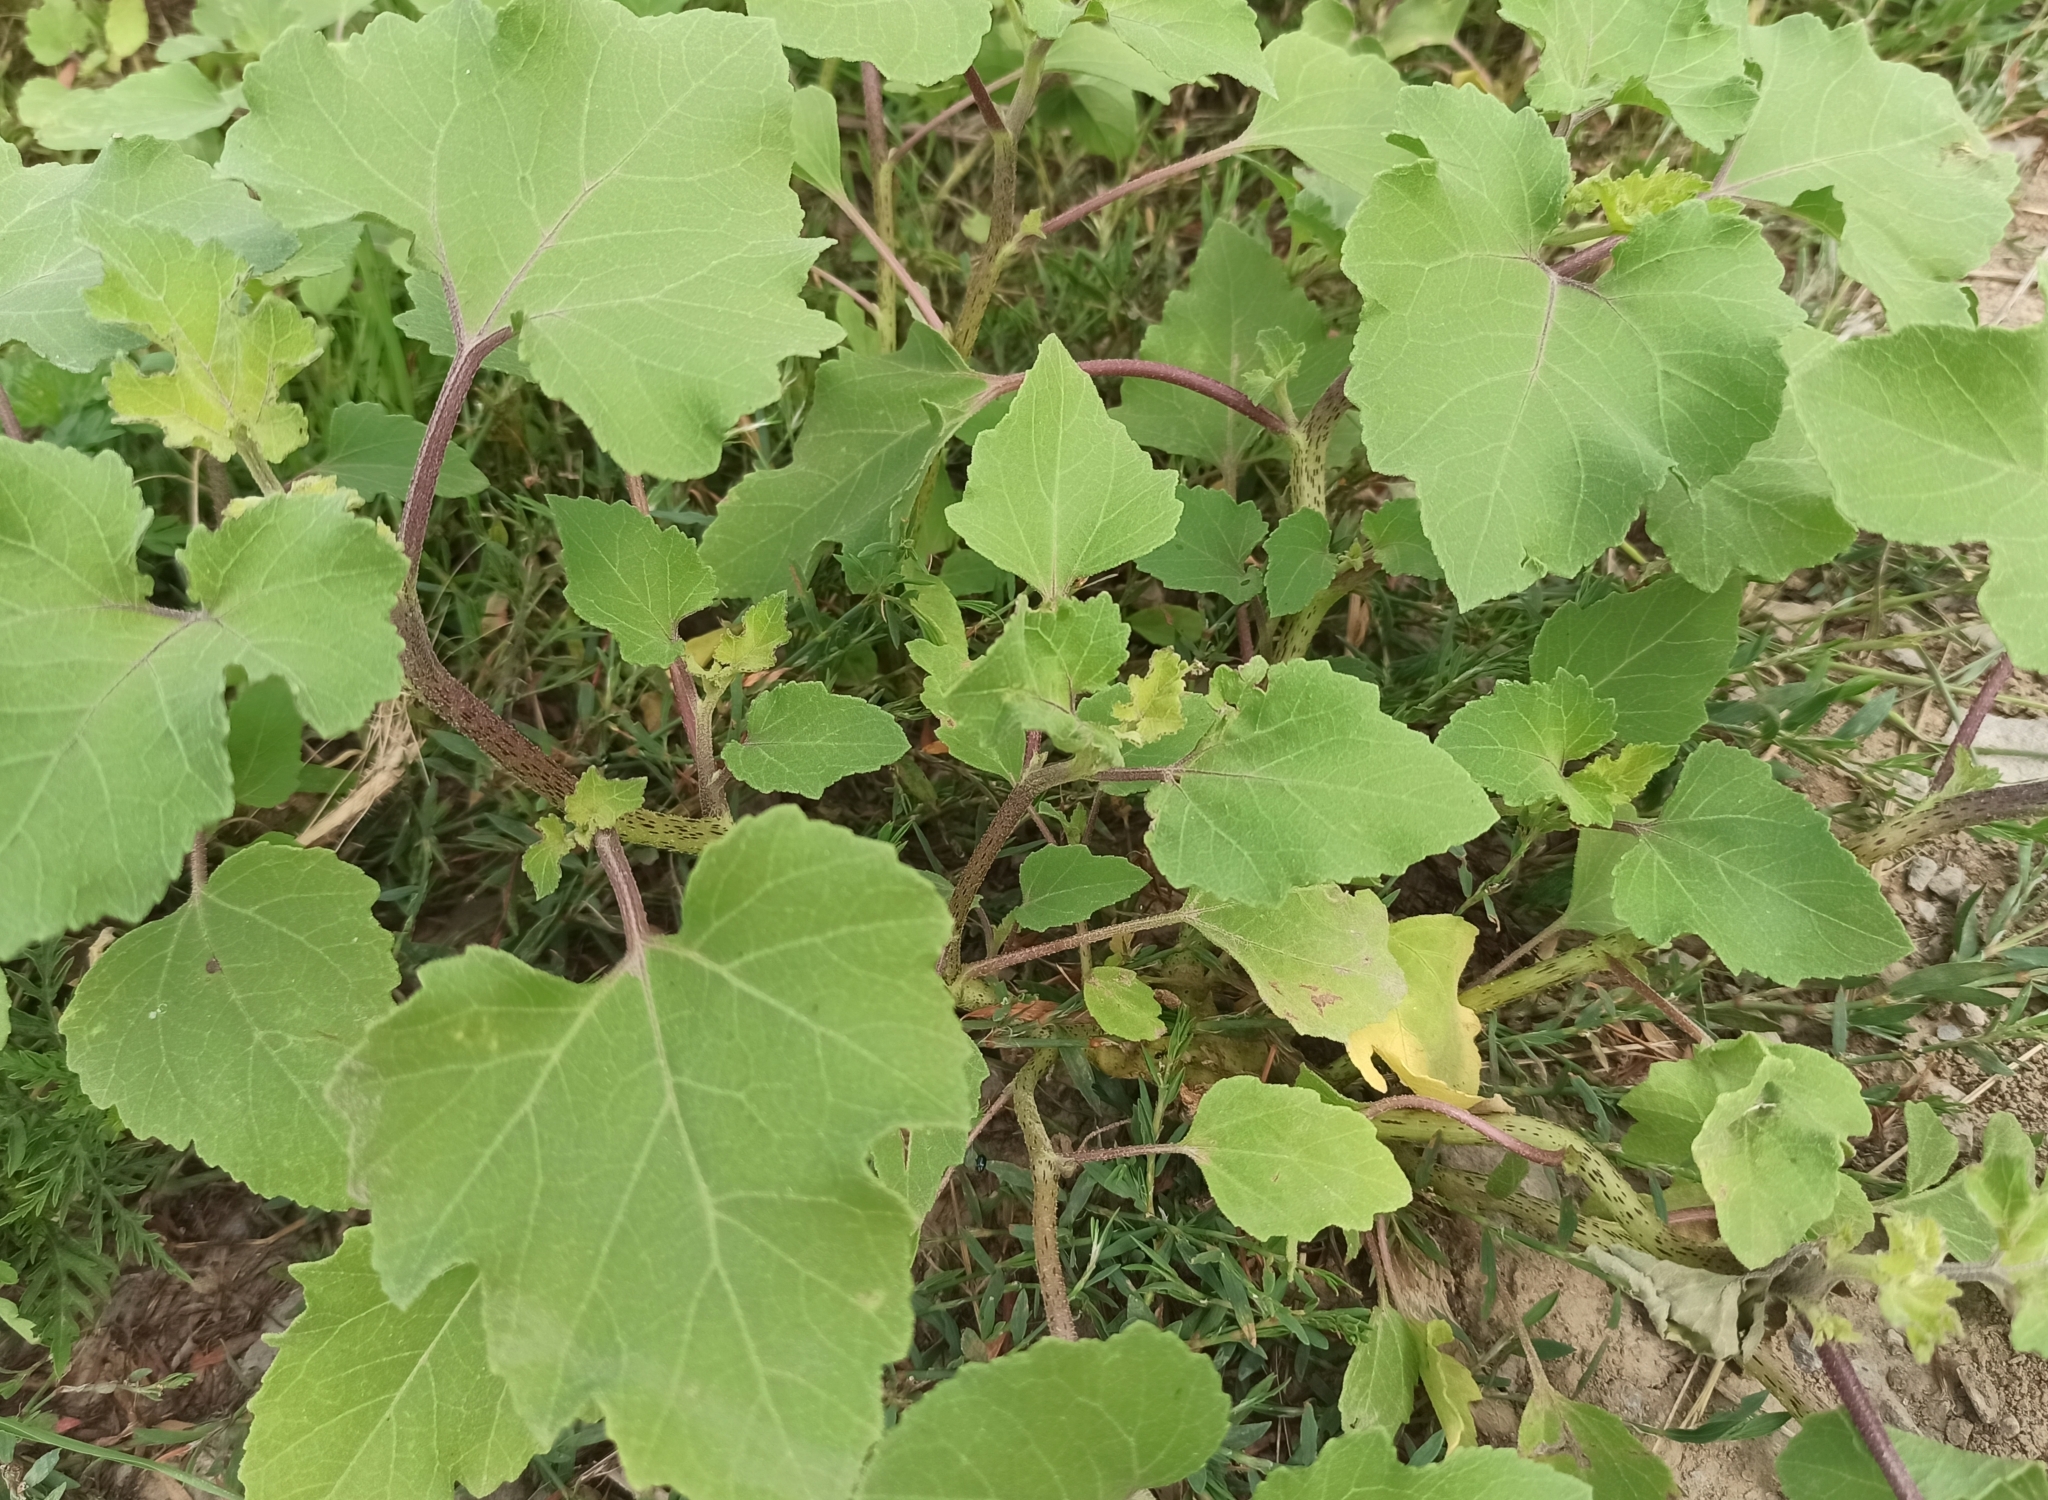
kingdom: Plantae
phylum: Tracheophyta
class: Magnoliopsida
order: Asterales
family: Asteraceae
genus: Xanthium
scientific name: Xanthium orientale
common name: Californian burr
